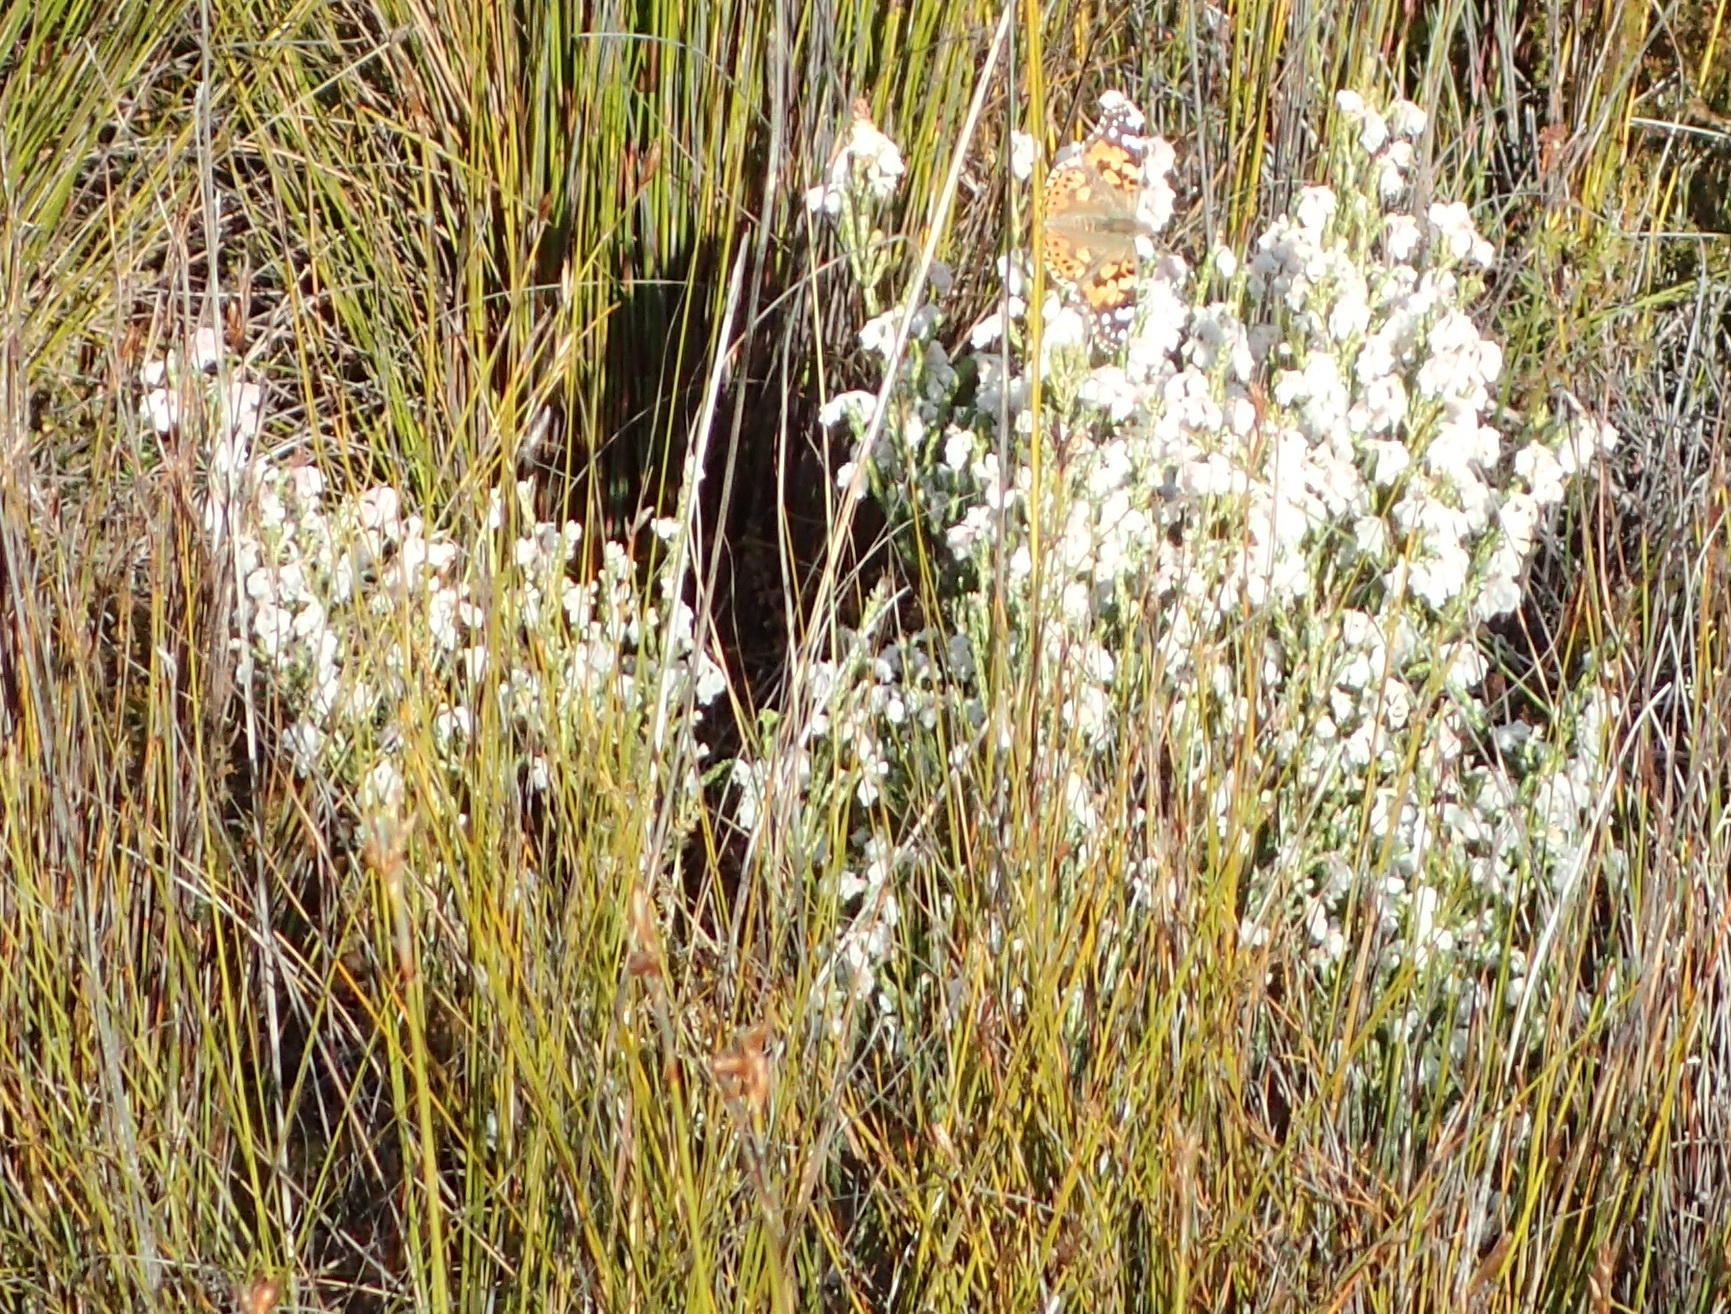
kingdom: Plantae
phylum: Tracheophyta
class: Magnoliopsida
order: Ericales
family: Ericaceae
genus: Erica
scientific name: Erica fimbriata
